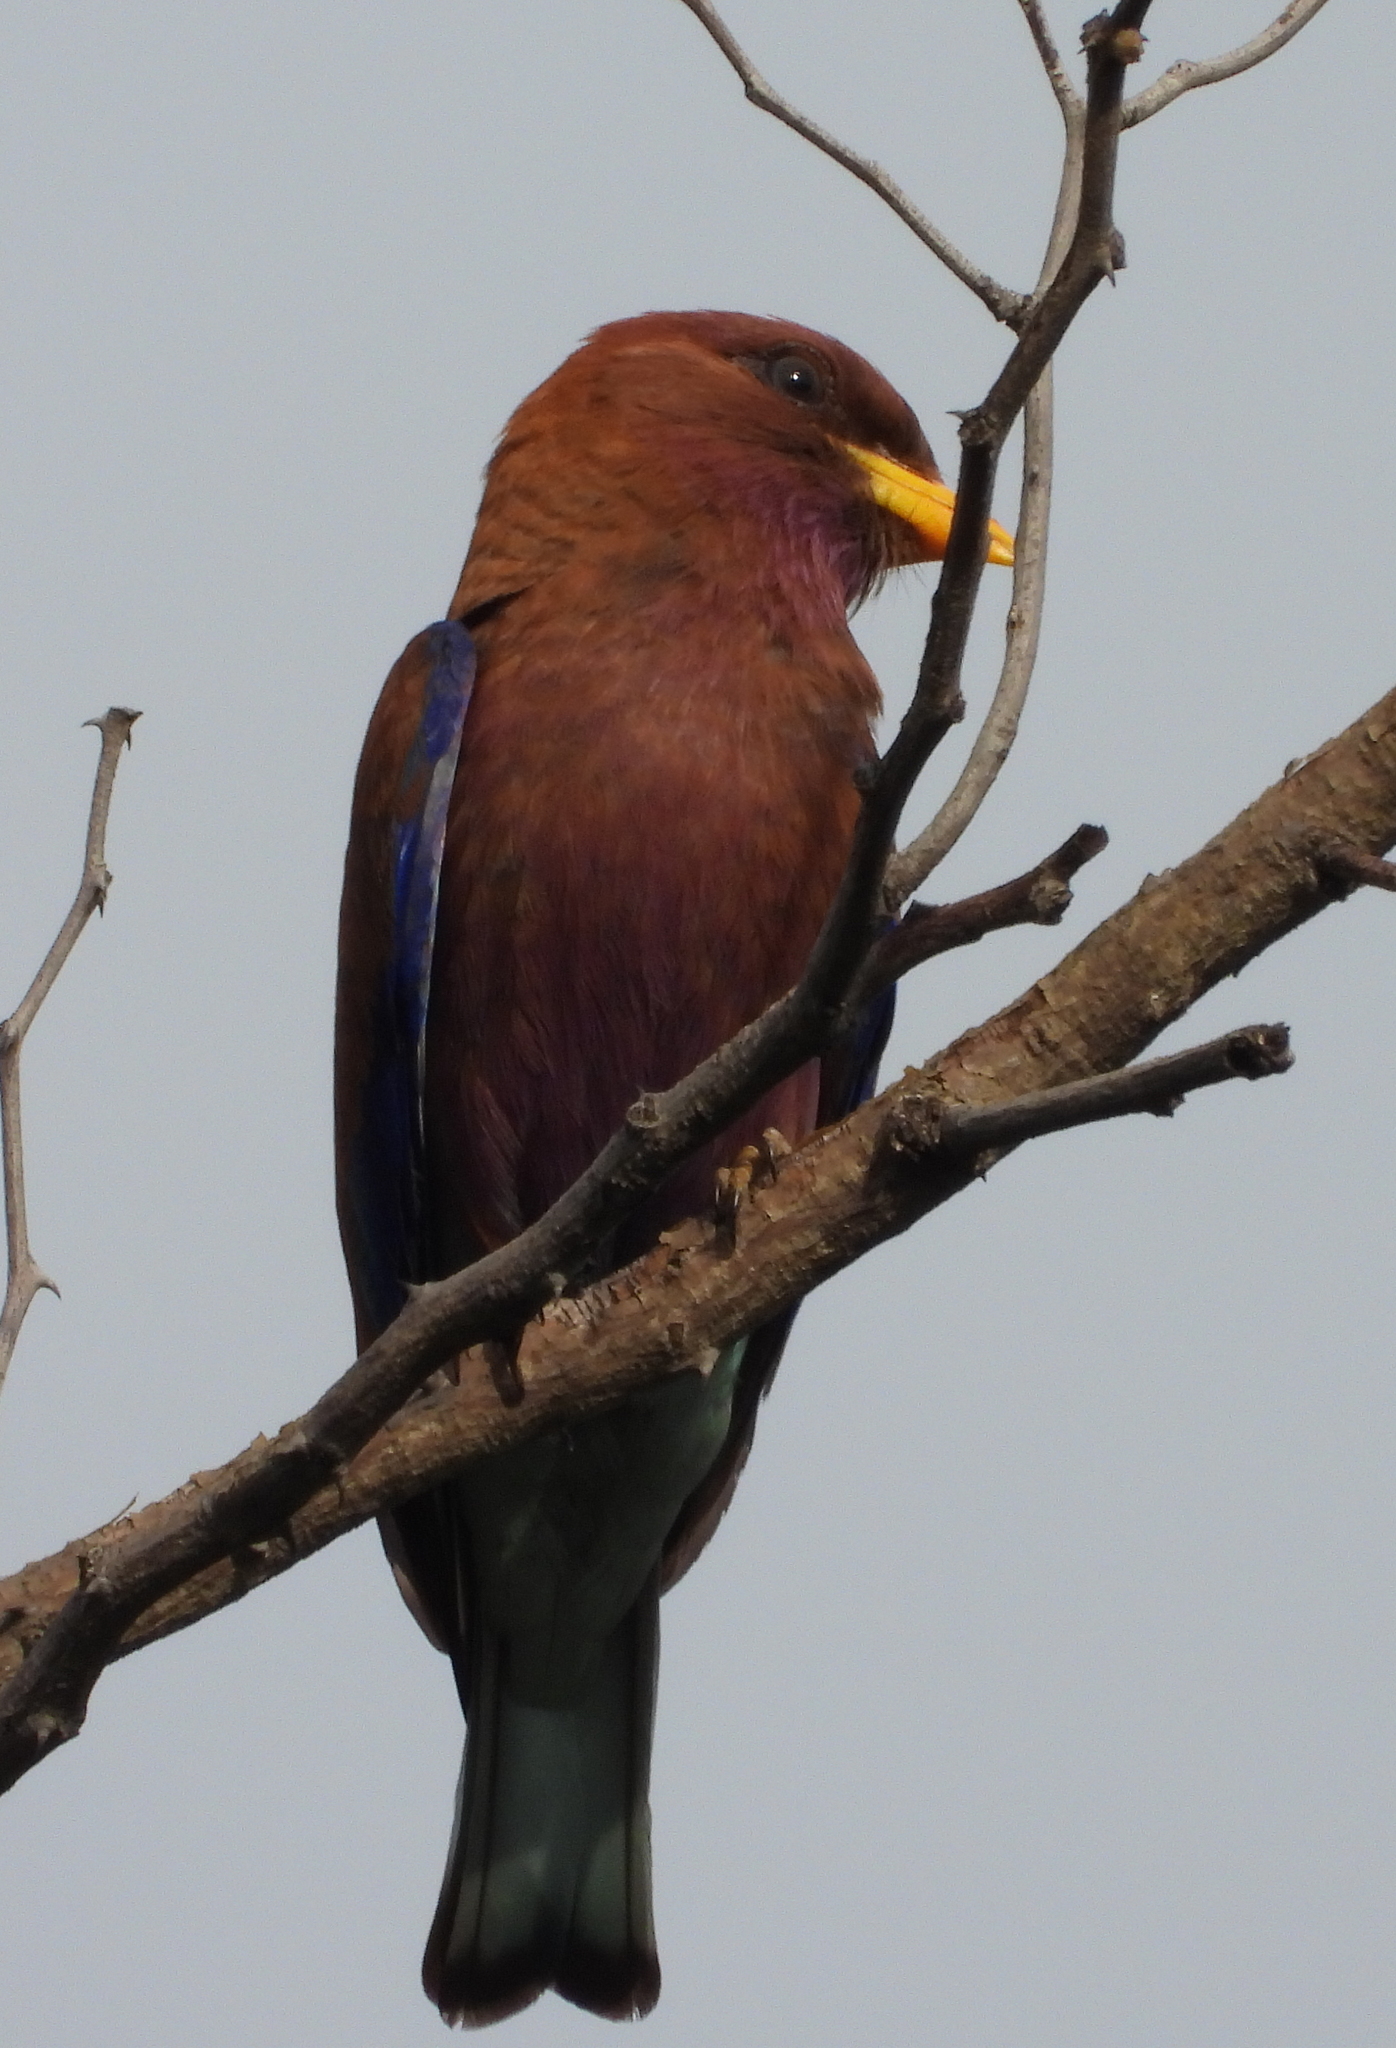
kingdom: Animalia
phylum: Chordata
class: Aves
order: Coraciiformes
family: Coraciidae
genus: Eurystomus
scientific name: Eurystomus glaucurus
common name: Broad-billed roller
